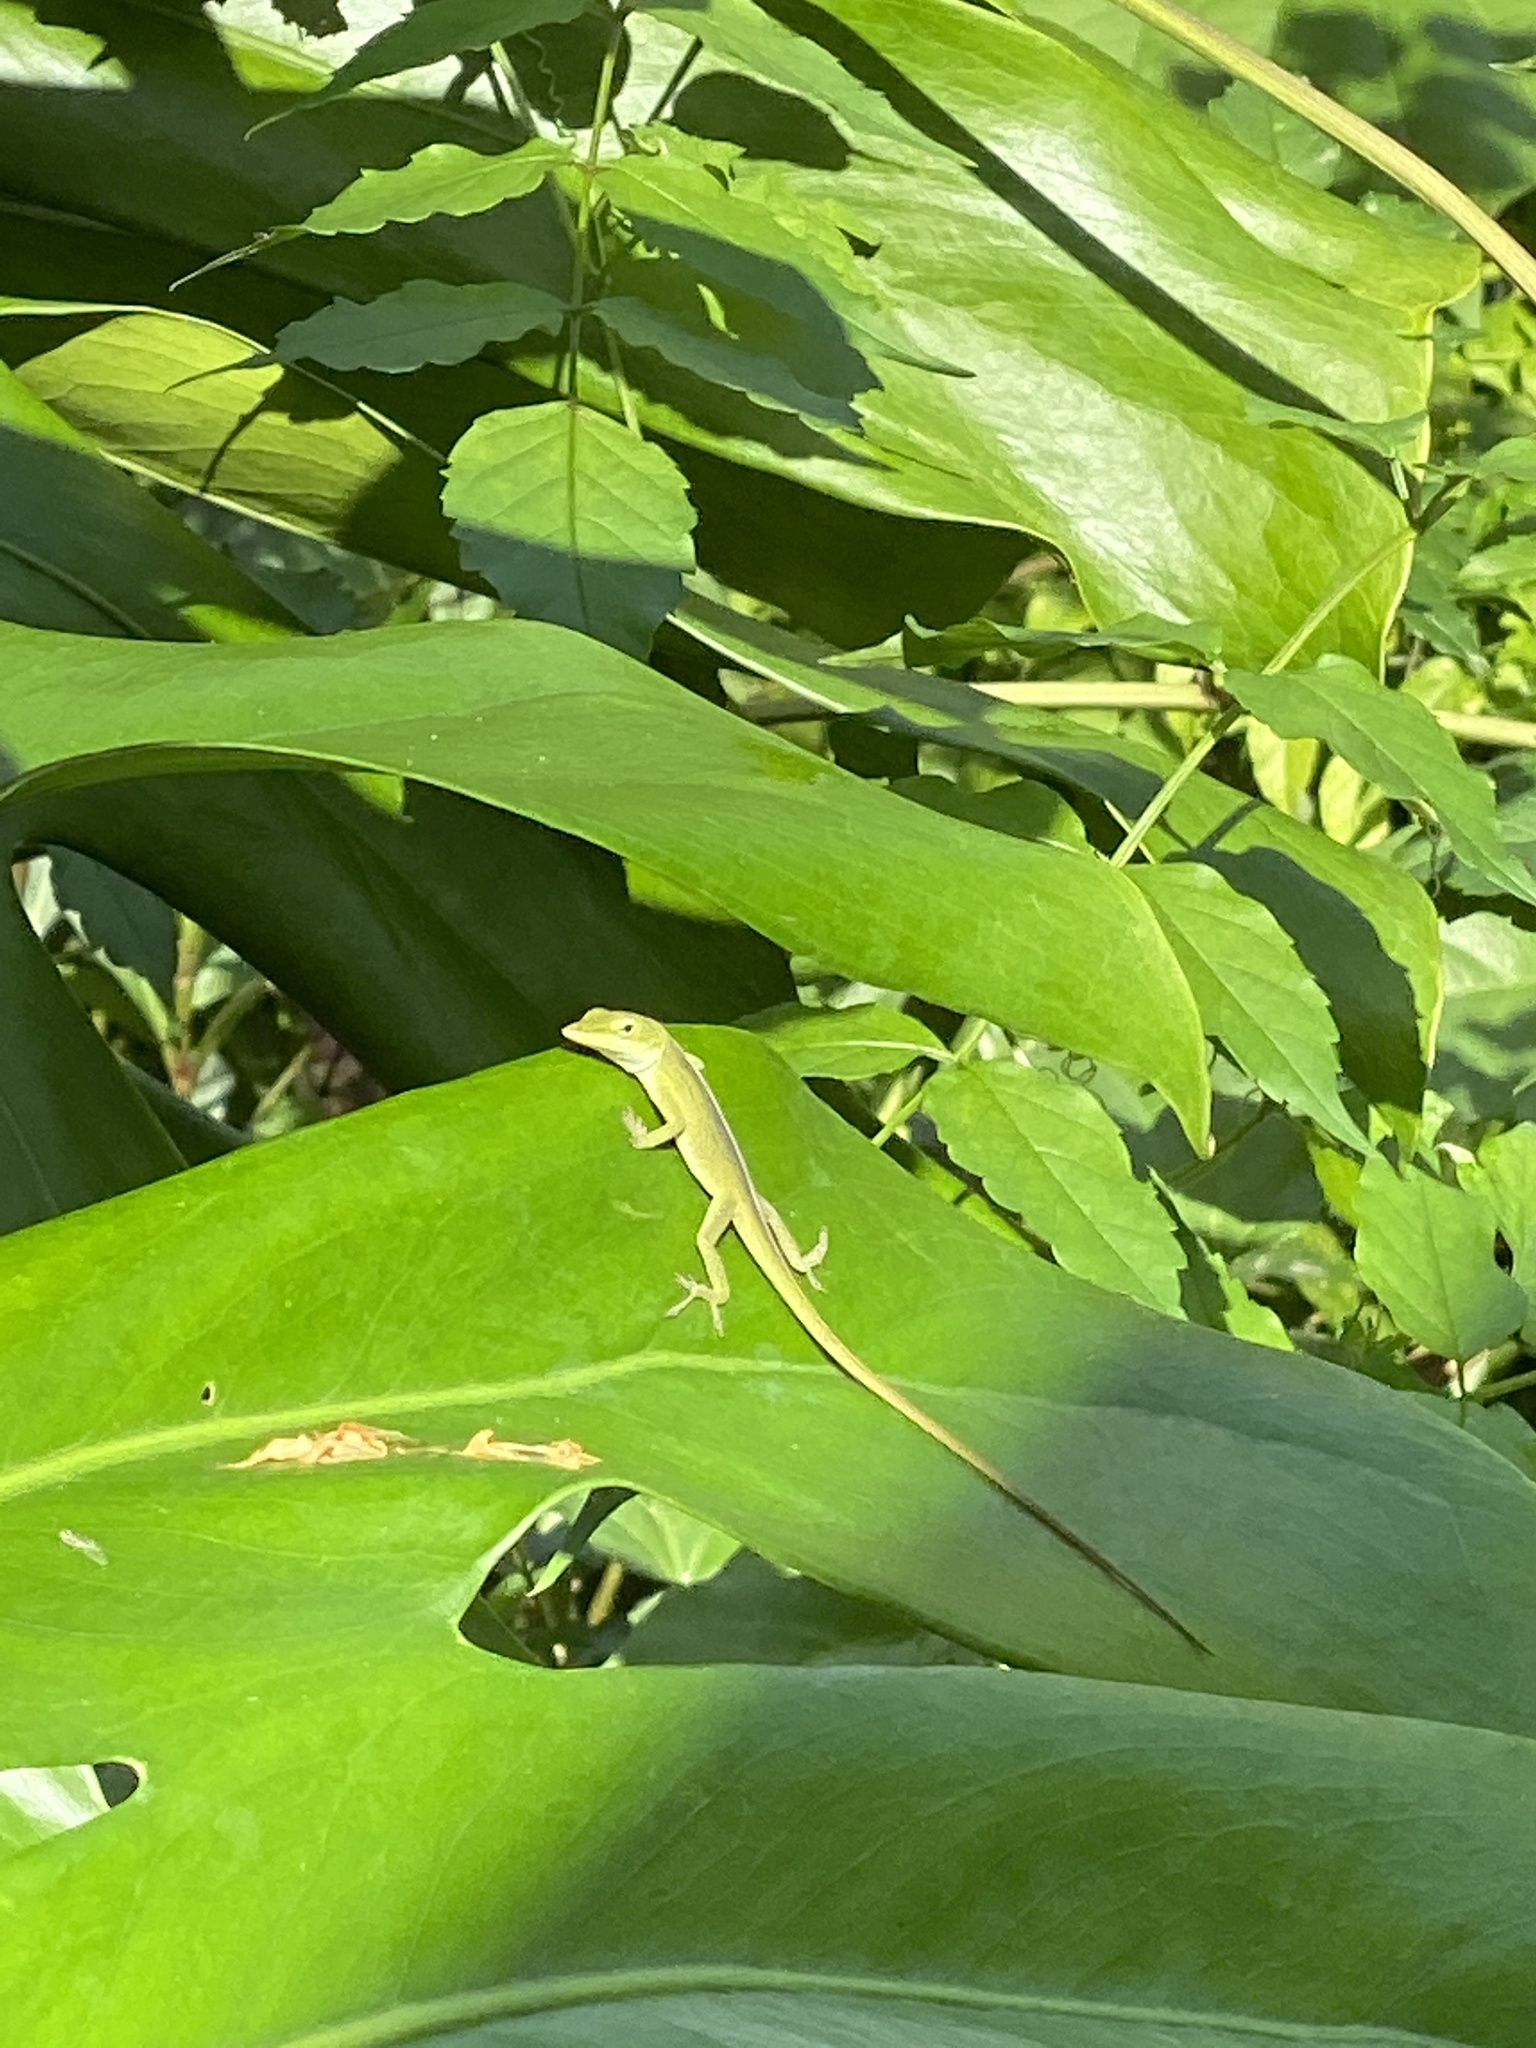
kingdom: Animalia
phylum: Chordata
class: Squamata
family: Dactyloidae
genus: Anolis
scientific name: Anolis carolinensis
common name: Green anole
